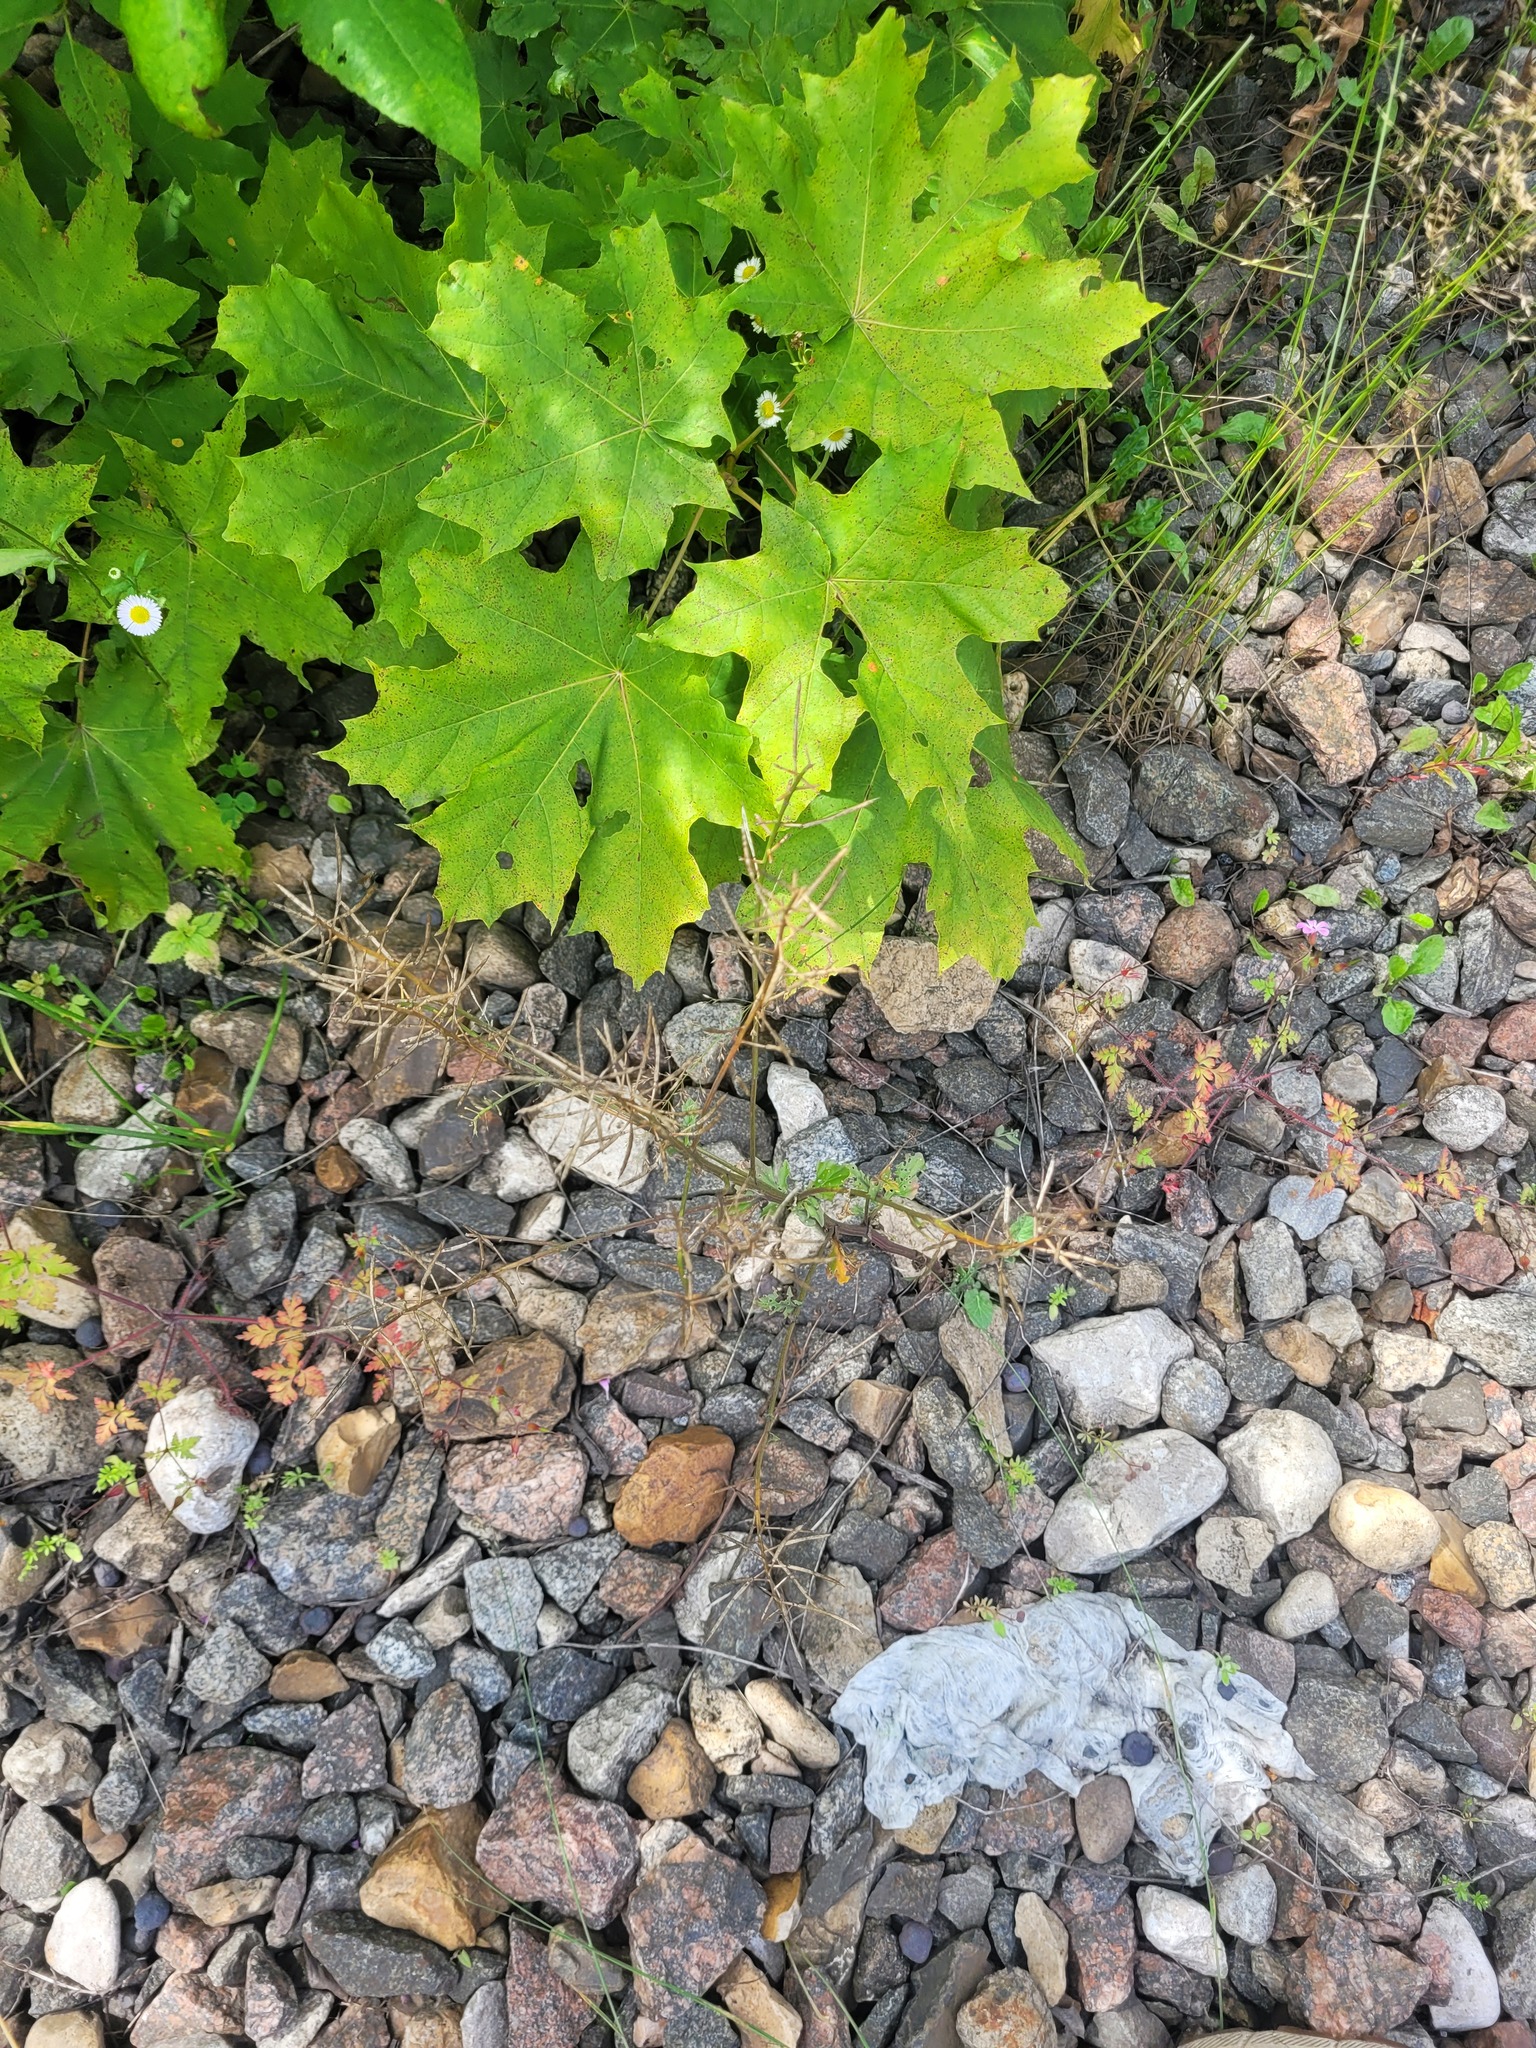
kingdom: Plantae
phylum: Tracheophyta
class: Magnoliopsida
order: Brassicales
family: Brassicaceae
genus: Barbarea
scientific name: Barbarea vulgaris
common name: Cressy-greens
